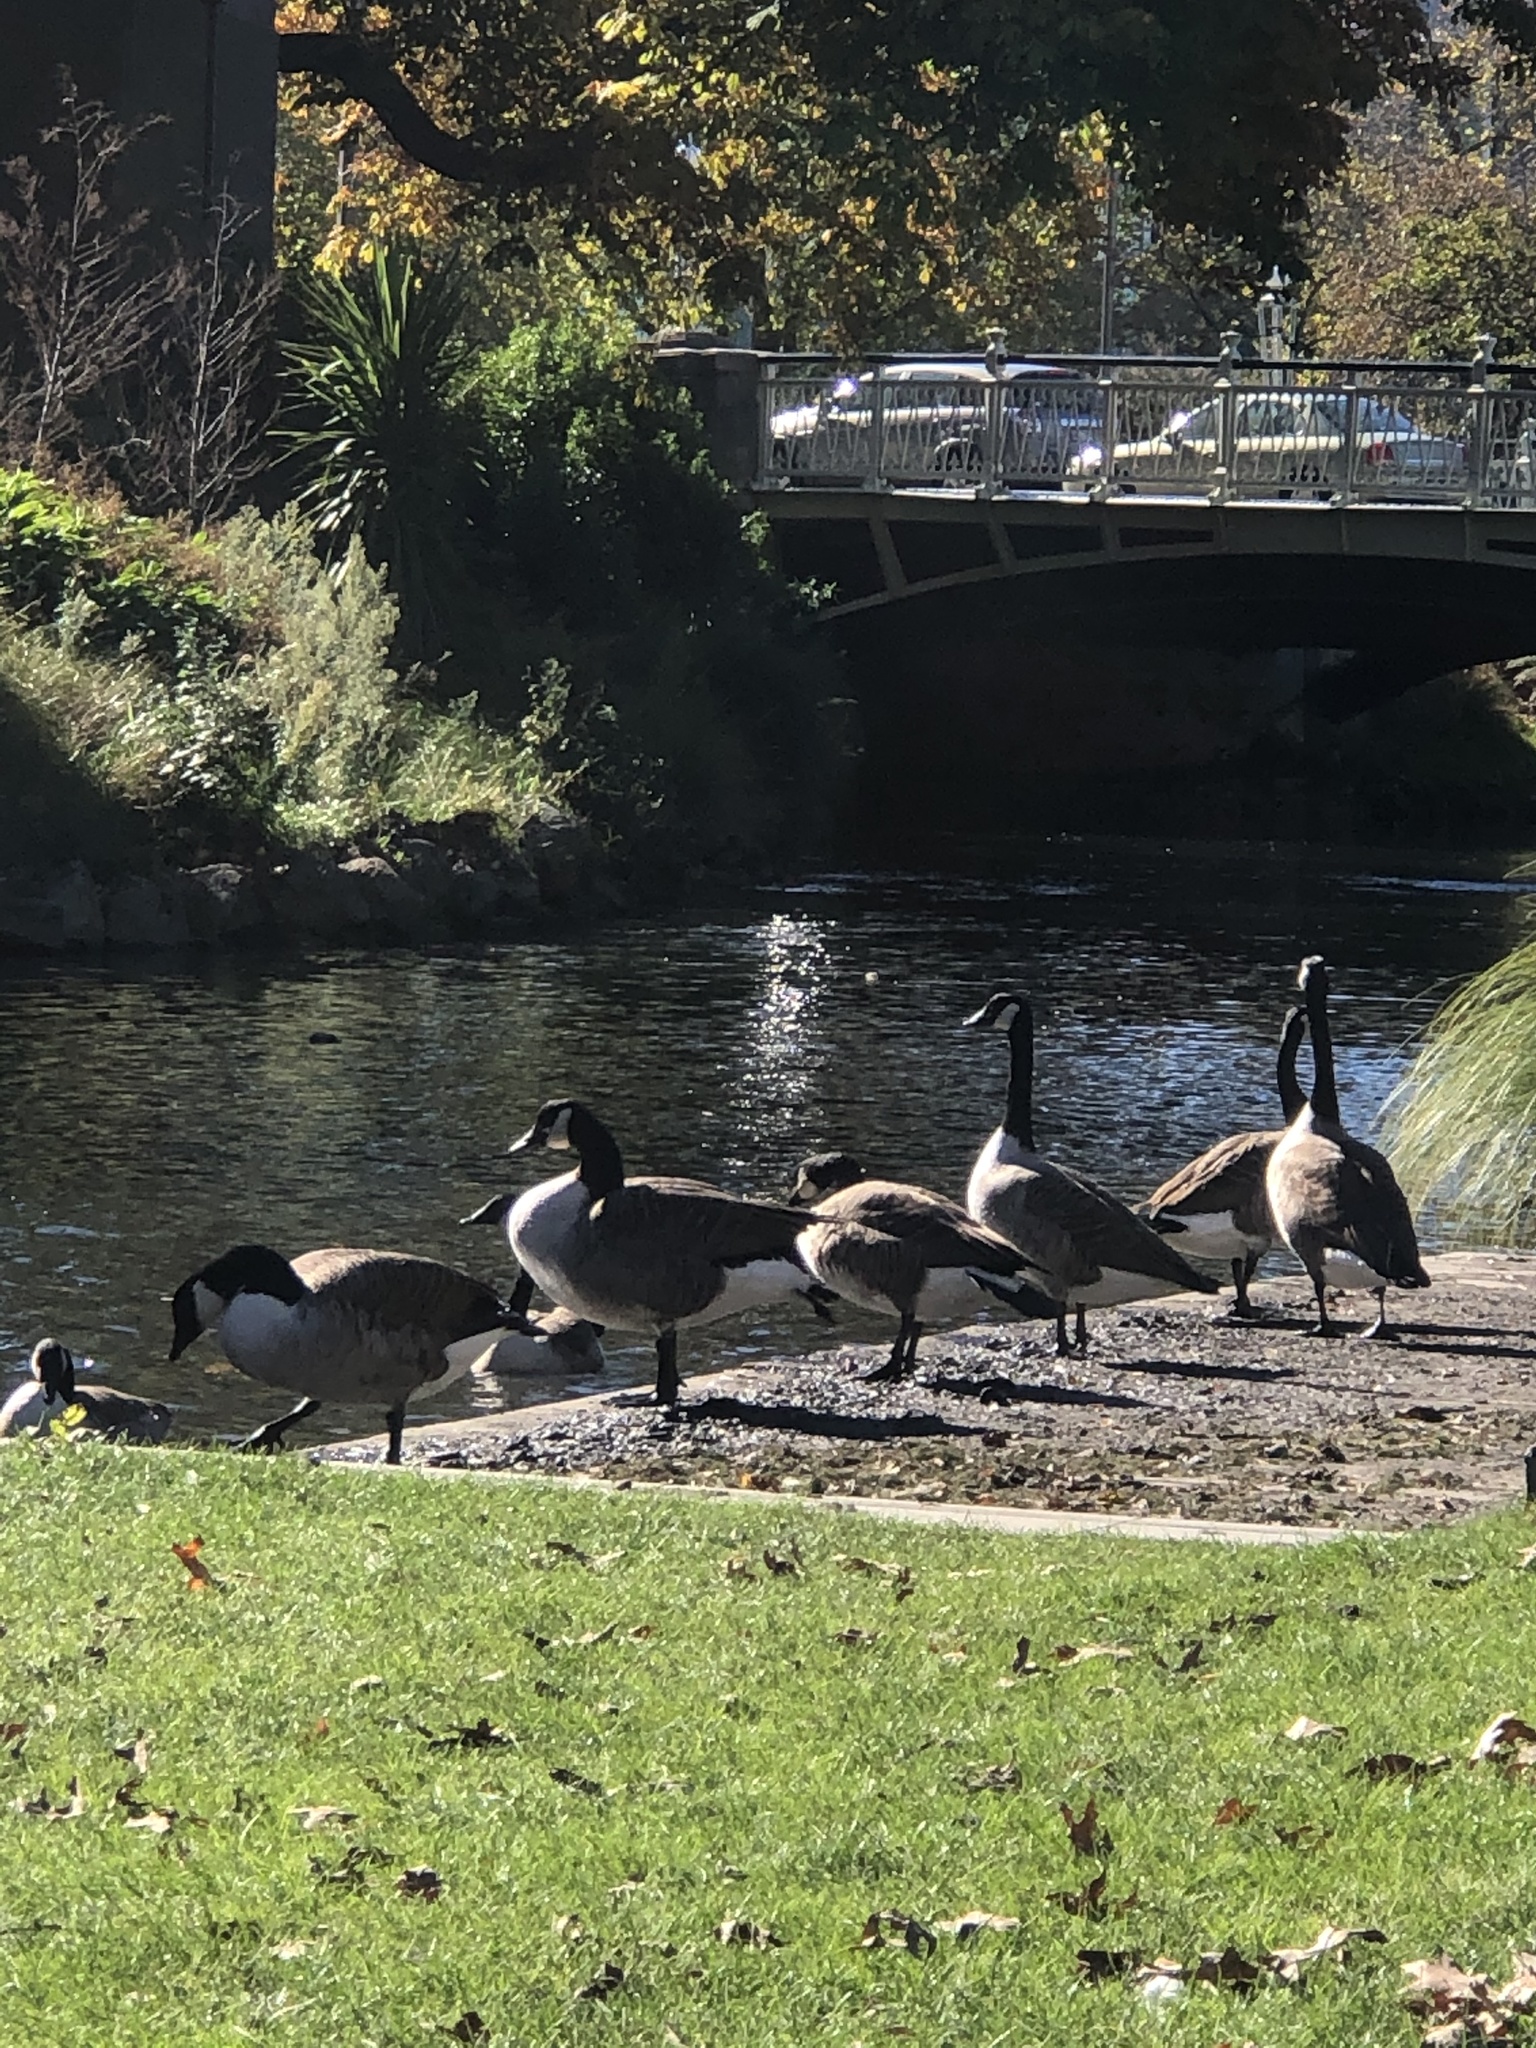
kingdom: Animalia
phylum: Chordata
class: Aves
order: Anseriformes
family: Anatidae
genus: Branta
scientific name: Branta canadensis
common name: Canada goose
